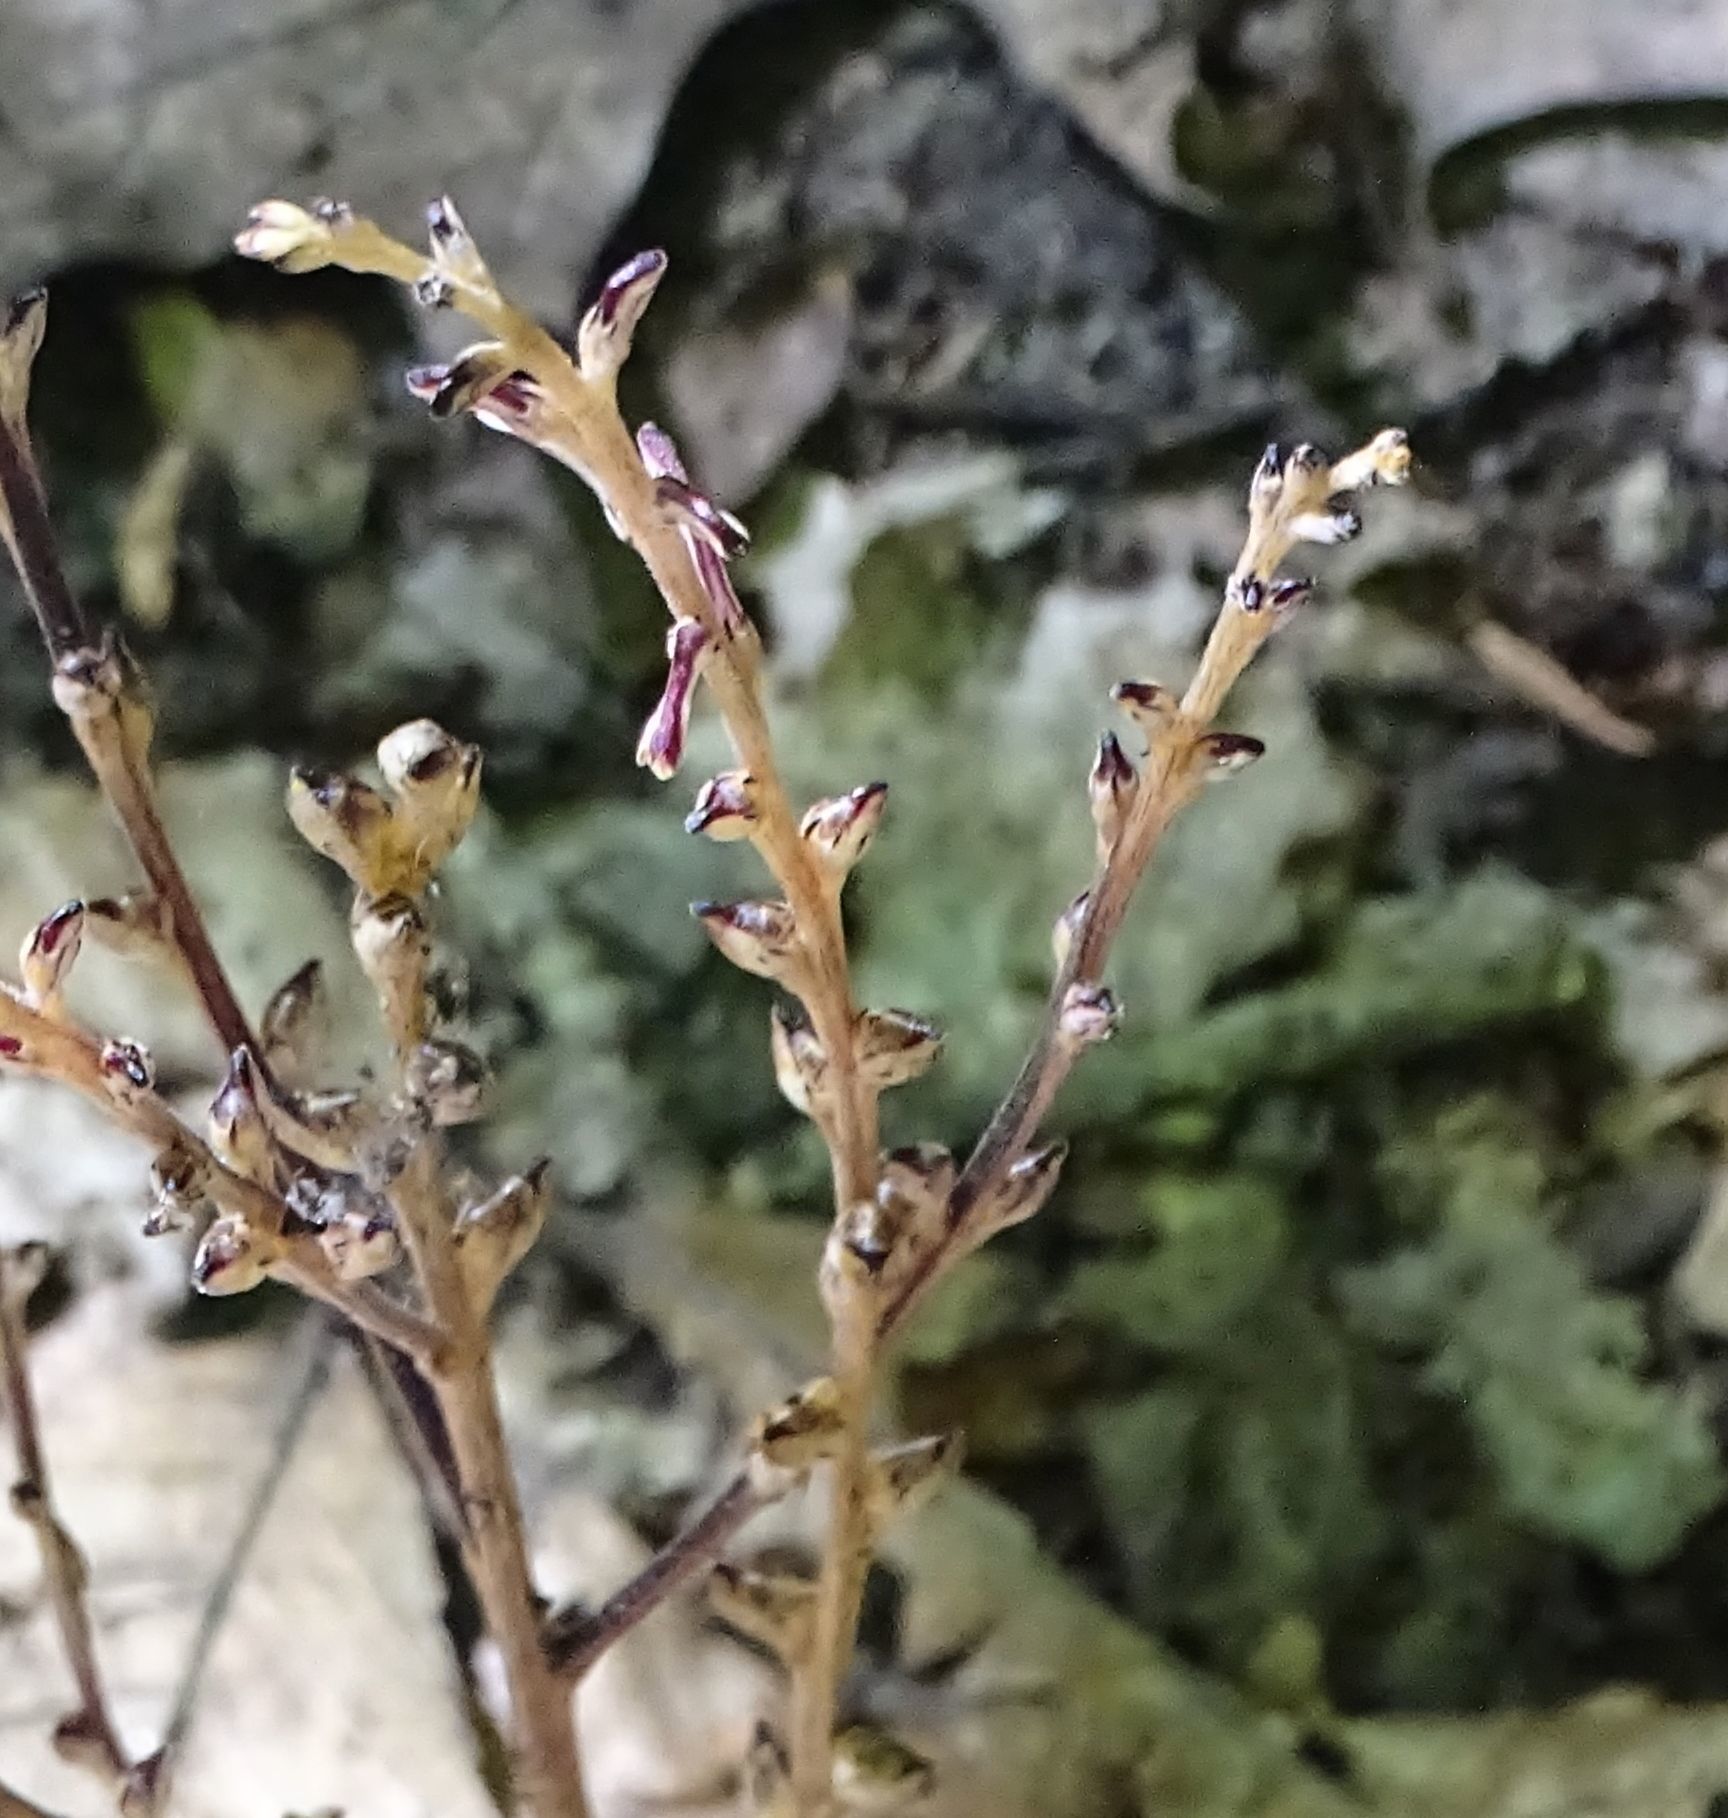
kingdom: Plantae
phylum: Tracheophyta
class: Magnoliopsida
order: Lamiales
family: Orobanchaceae
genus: Epifagus
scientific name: Epifagus virginiana
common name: Beechdrops
